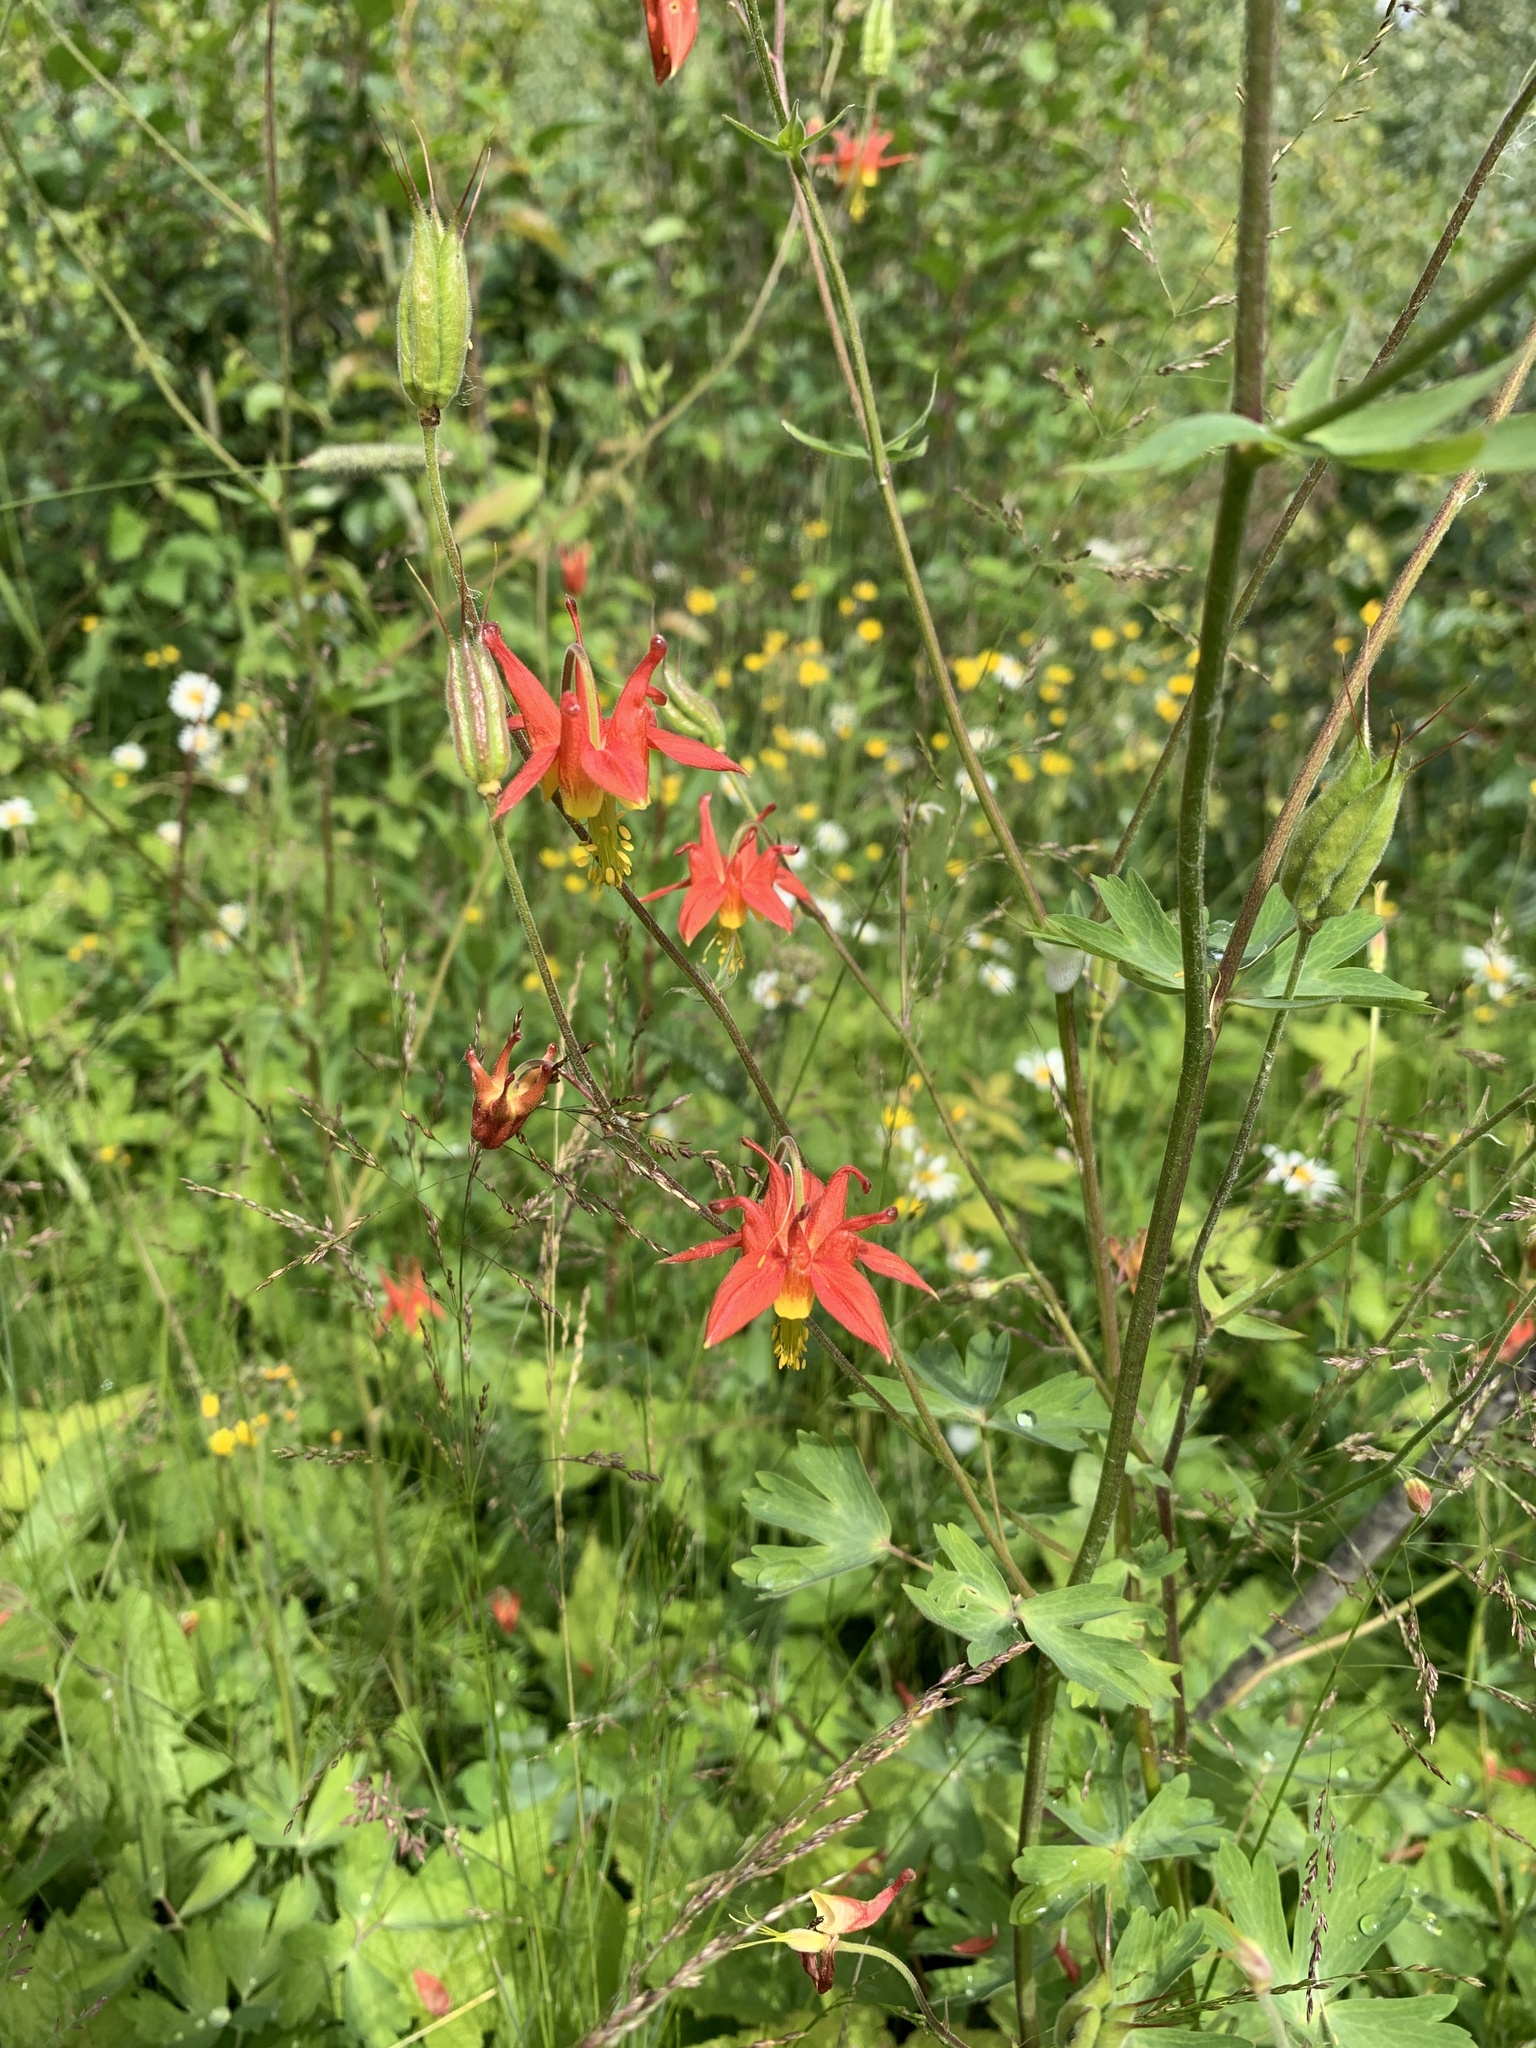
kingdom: Plantae
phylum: Tracheophyta
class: Magnoliopsida
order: Ranunculales
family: Ranunculaceae
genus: Aquilegia
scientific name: Aquilegia formosa
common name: Sitka columbine
